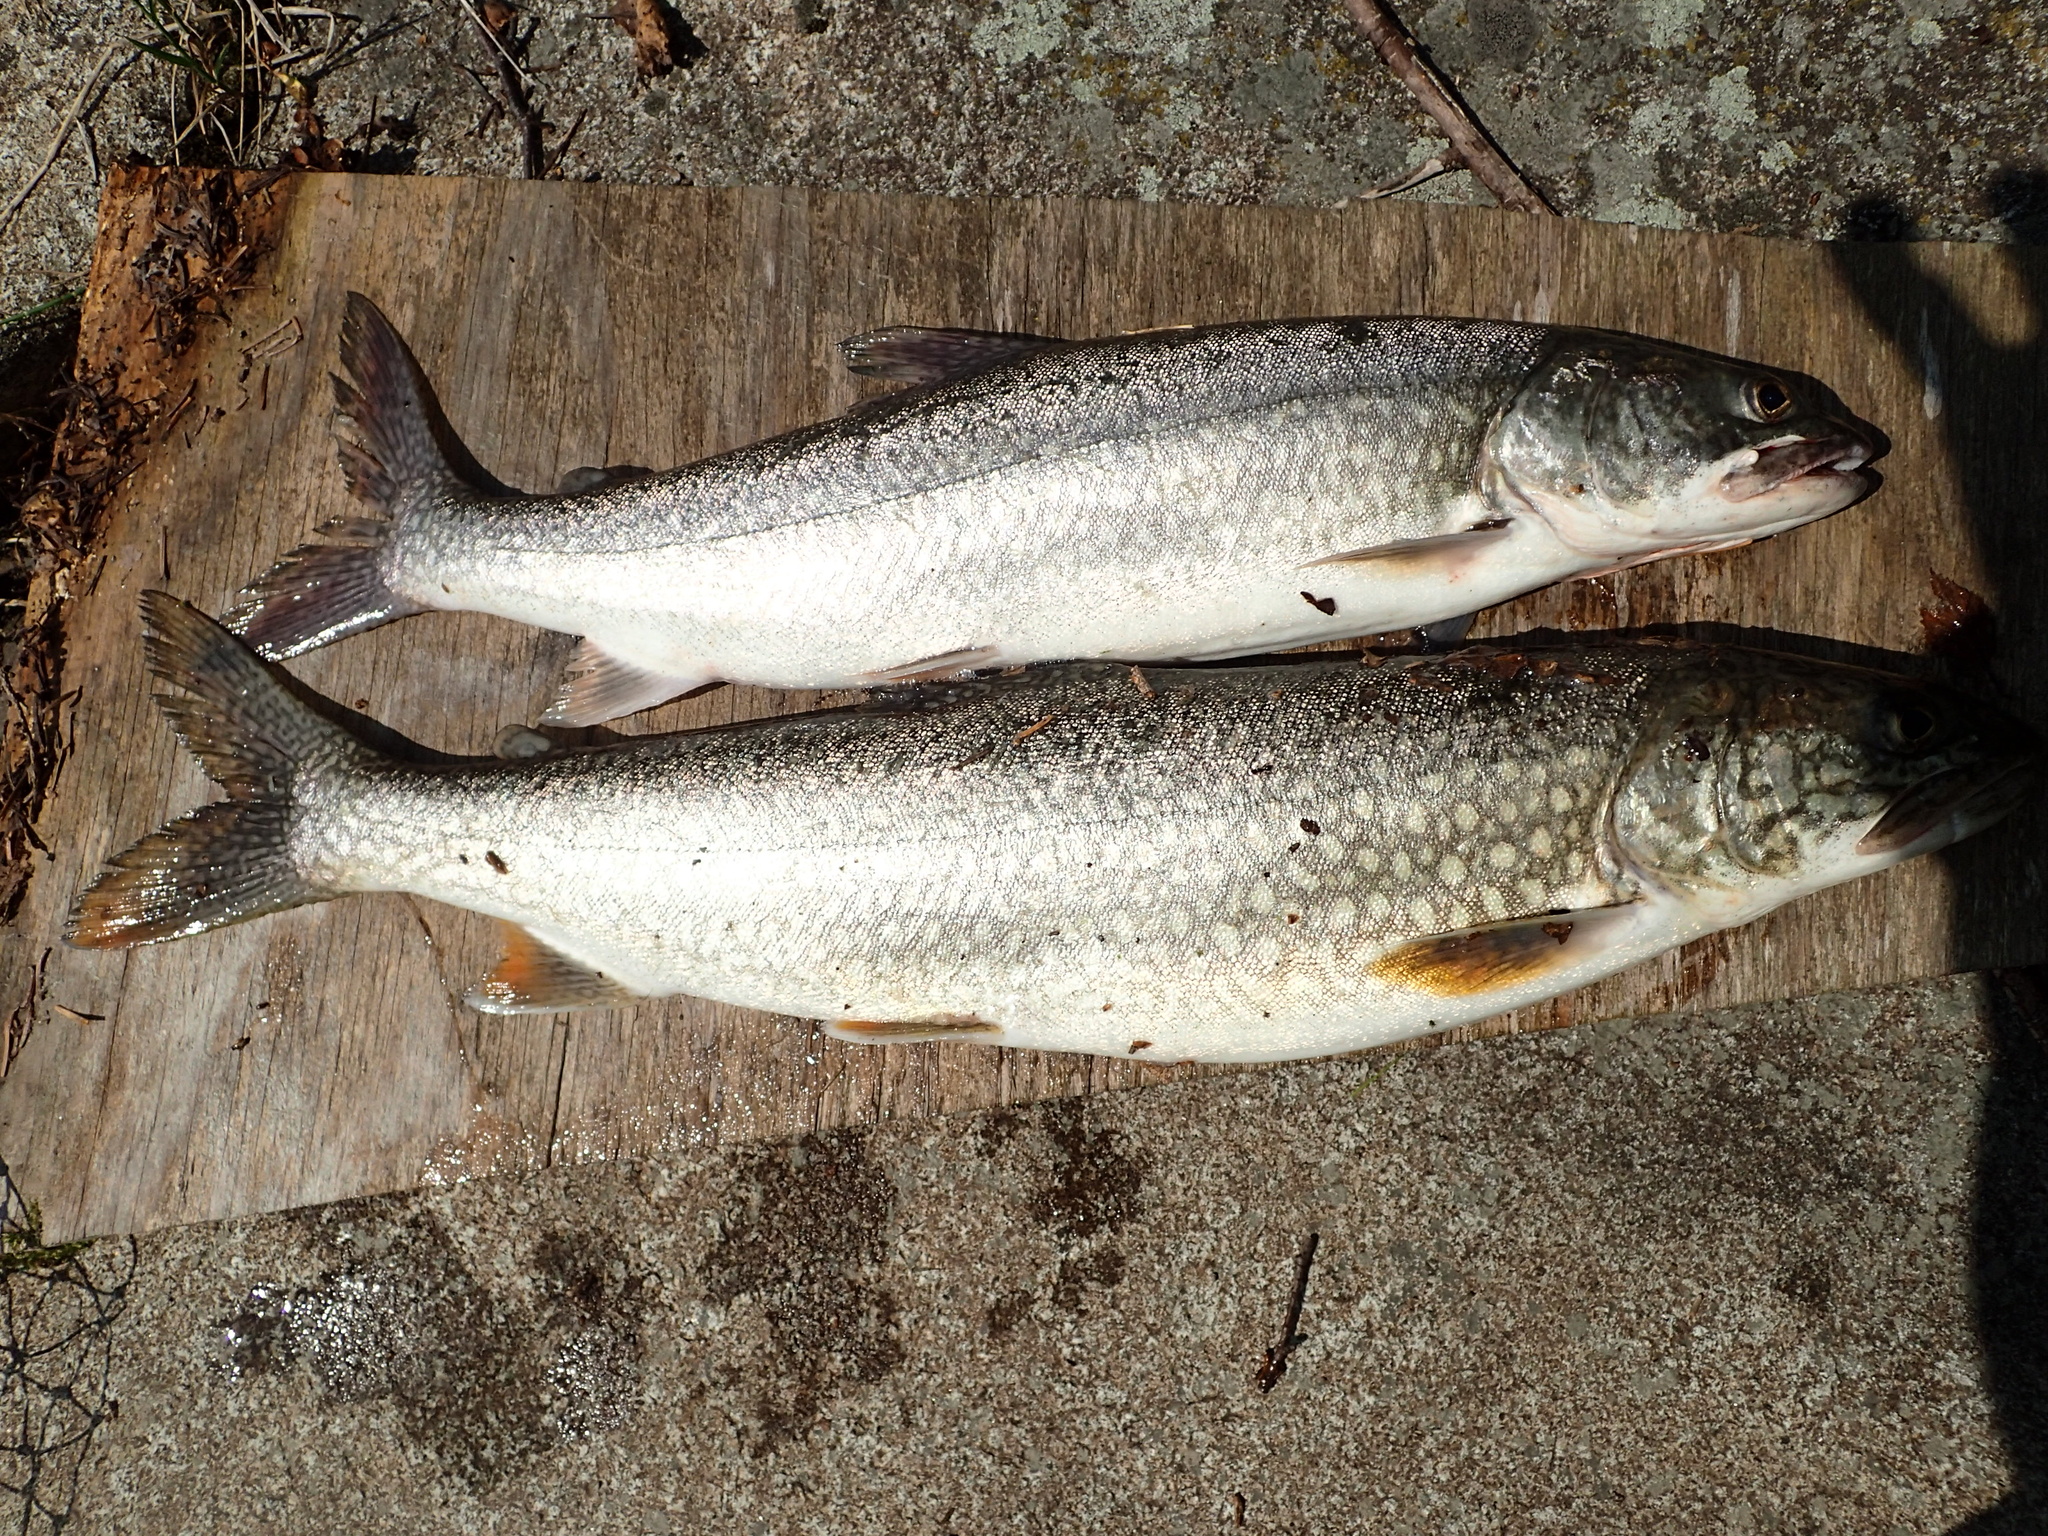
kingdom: Animalia
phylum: Chordata
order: Salmoniformes
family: Salmonidae
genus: Salvelinus
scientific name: Salvelinus namaycush
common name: American lake charr
